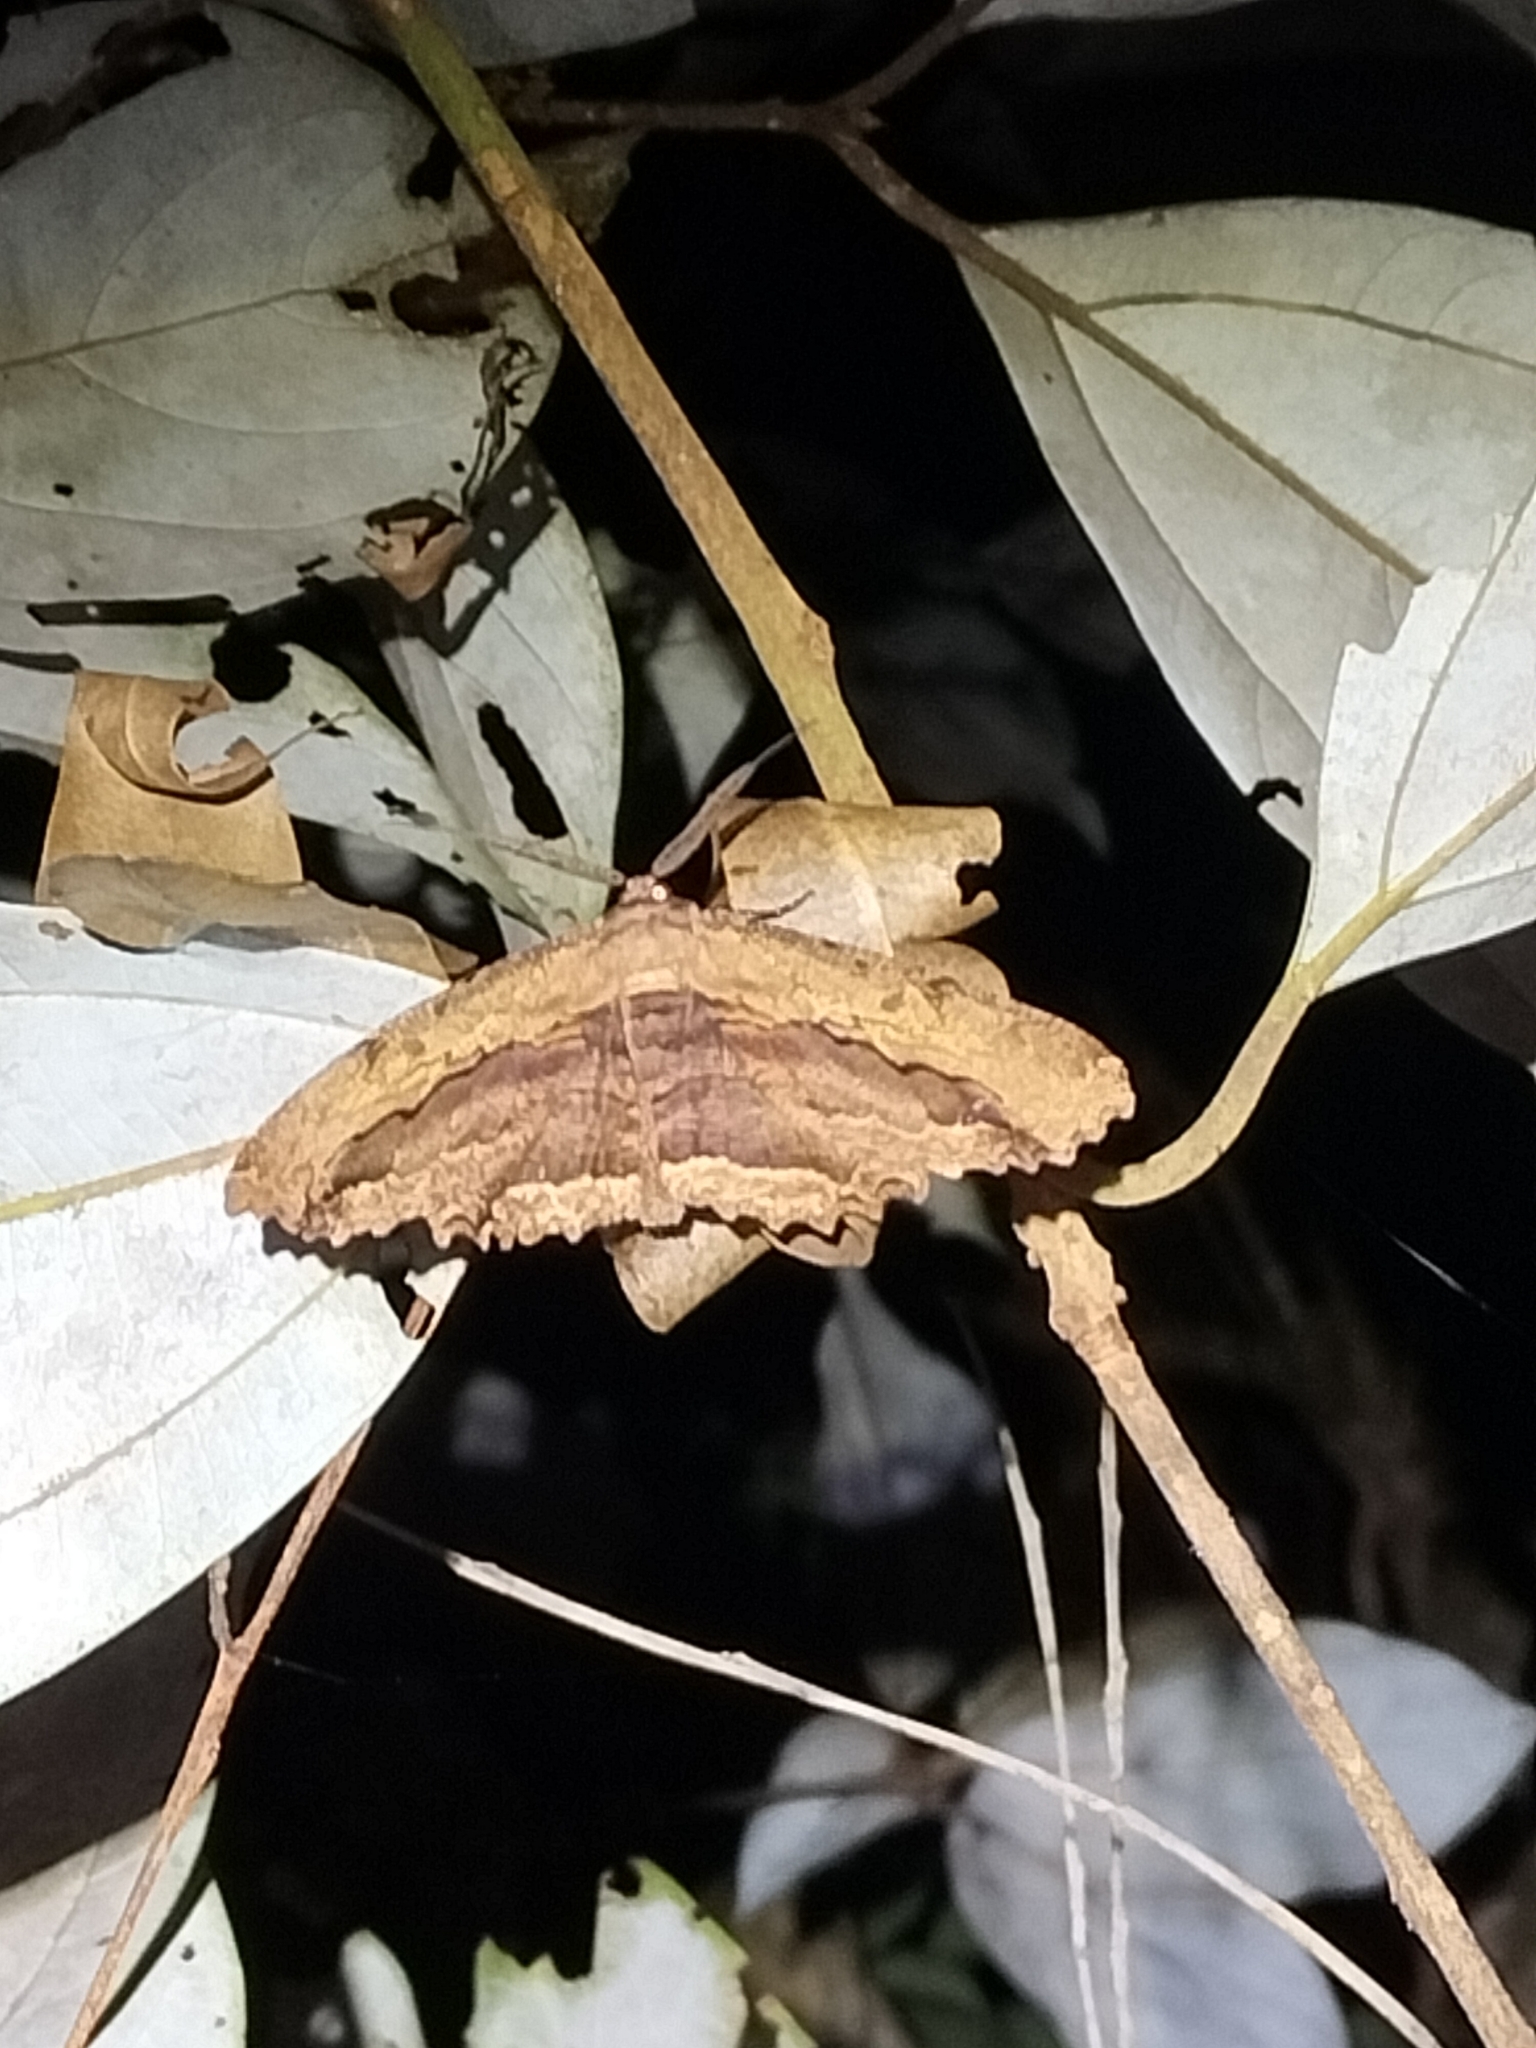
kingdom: Animalia
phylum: Arthropoda
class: Insecta
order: Lepidoptera
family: Geometridae
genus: Chorodna
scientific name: Chorodna strixaria
